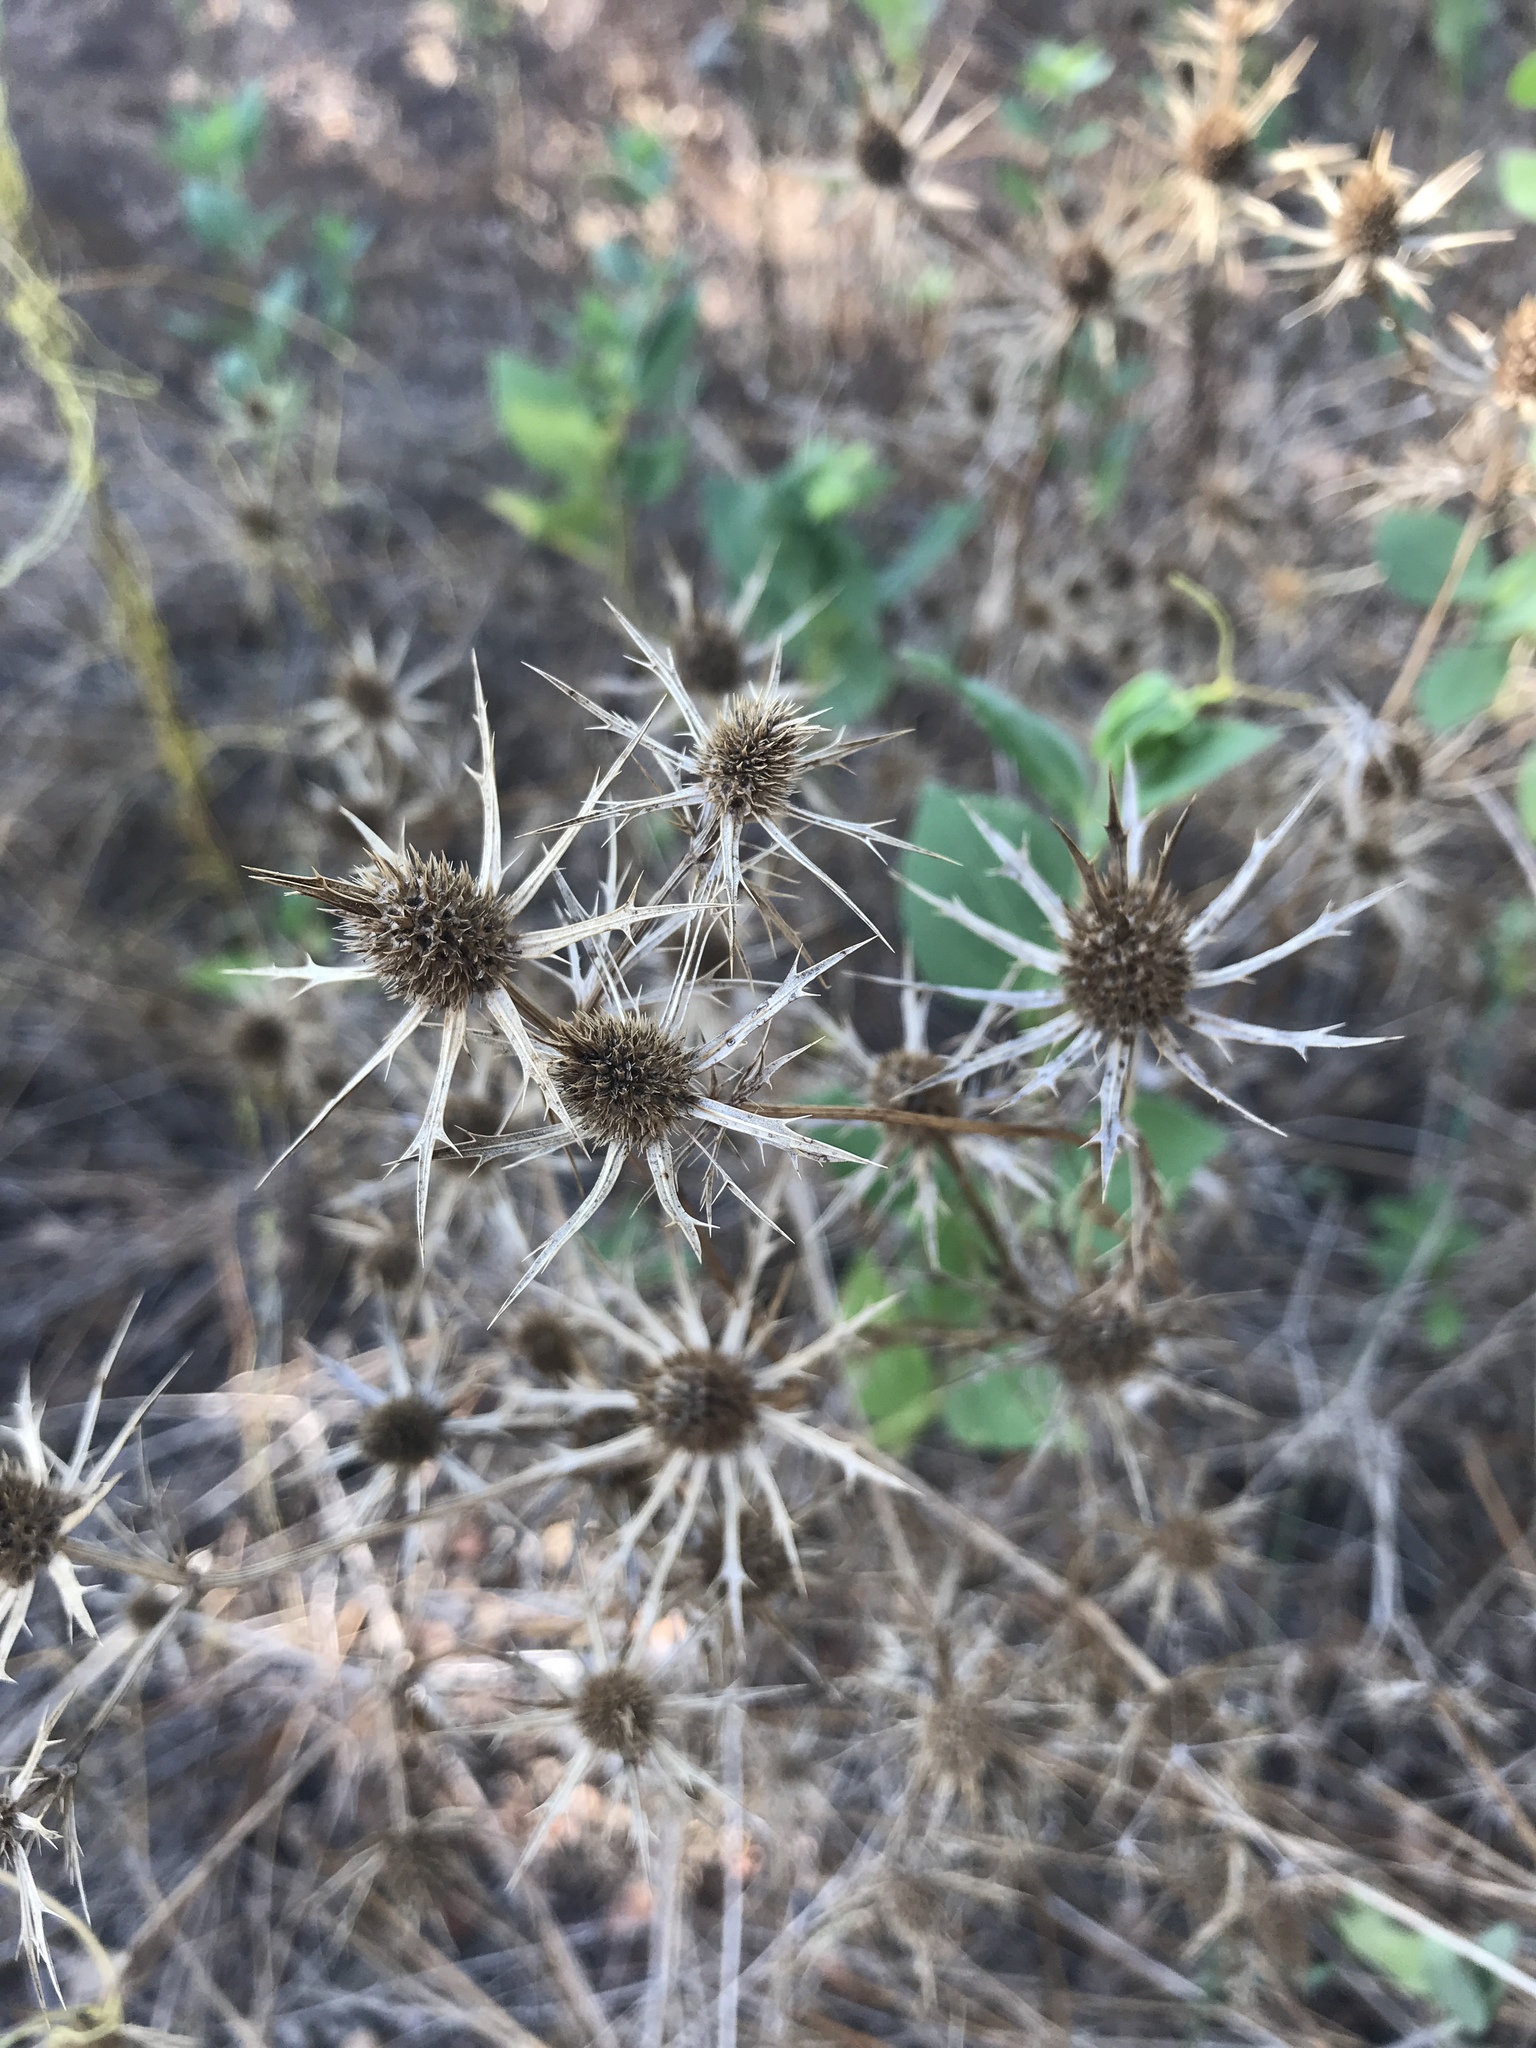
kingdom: Plantae
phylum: Tracheophyta
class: Magnoliopsida
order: Apiales
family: Apiaceae
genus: Eryngium
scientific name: Eryngium hookeri
